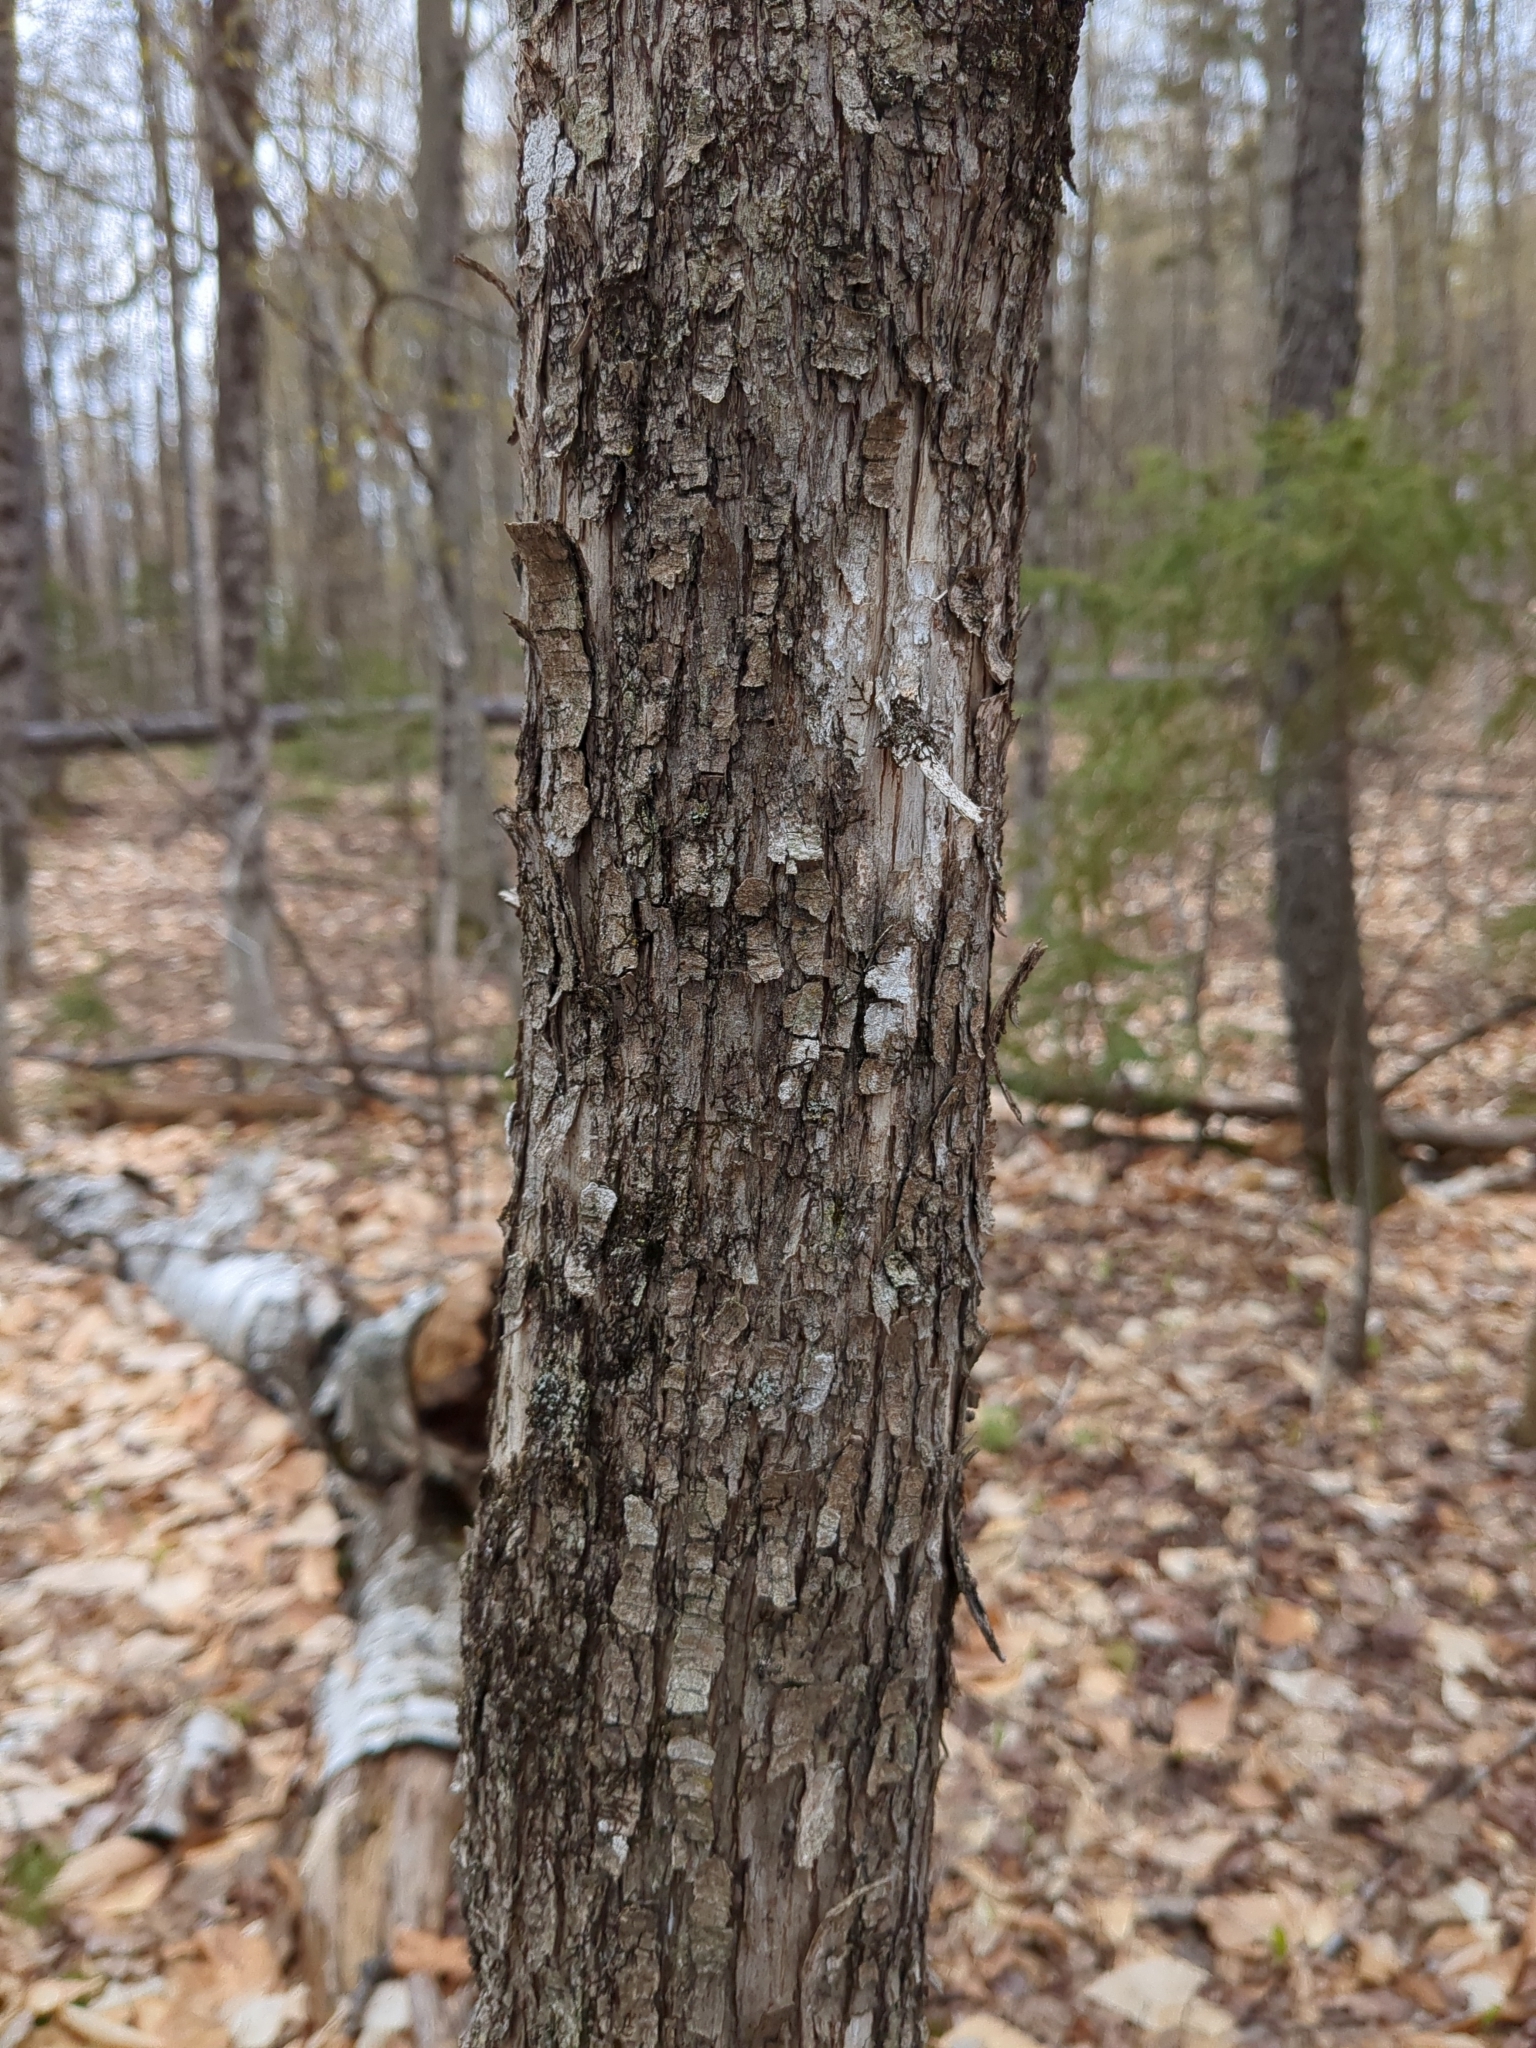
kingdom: Plantae
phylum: Tracheophyta
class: Magnoliopsida
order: Fagales
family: Betulaceae
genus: Ostrya
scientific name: Ostrya virginiana
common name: Ironwood
